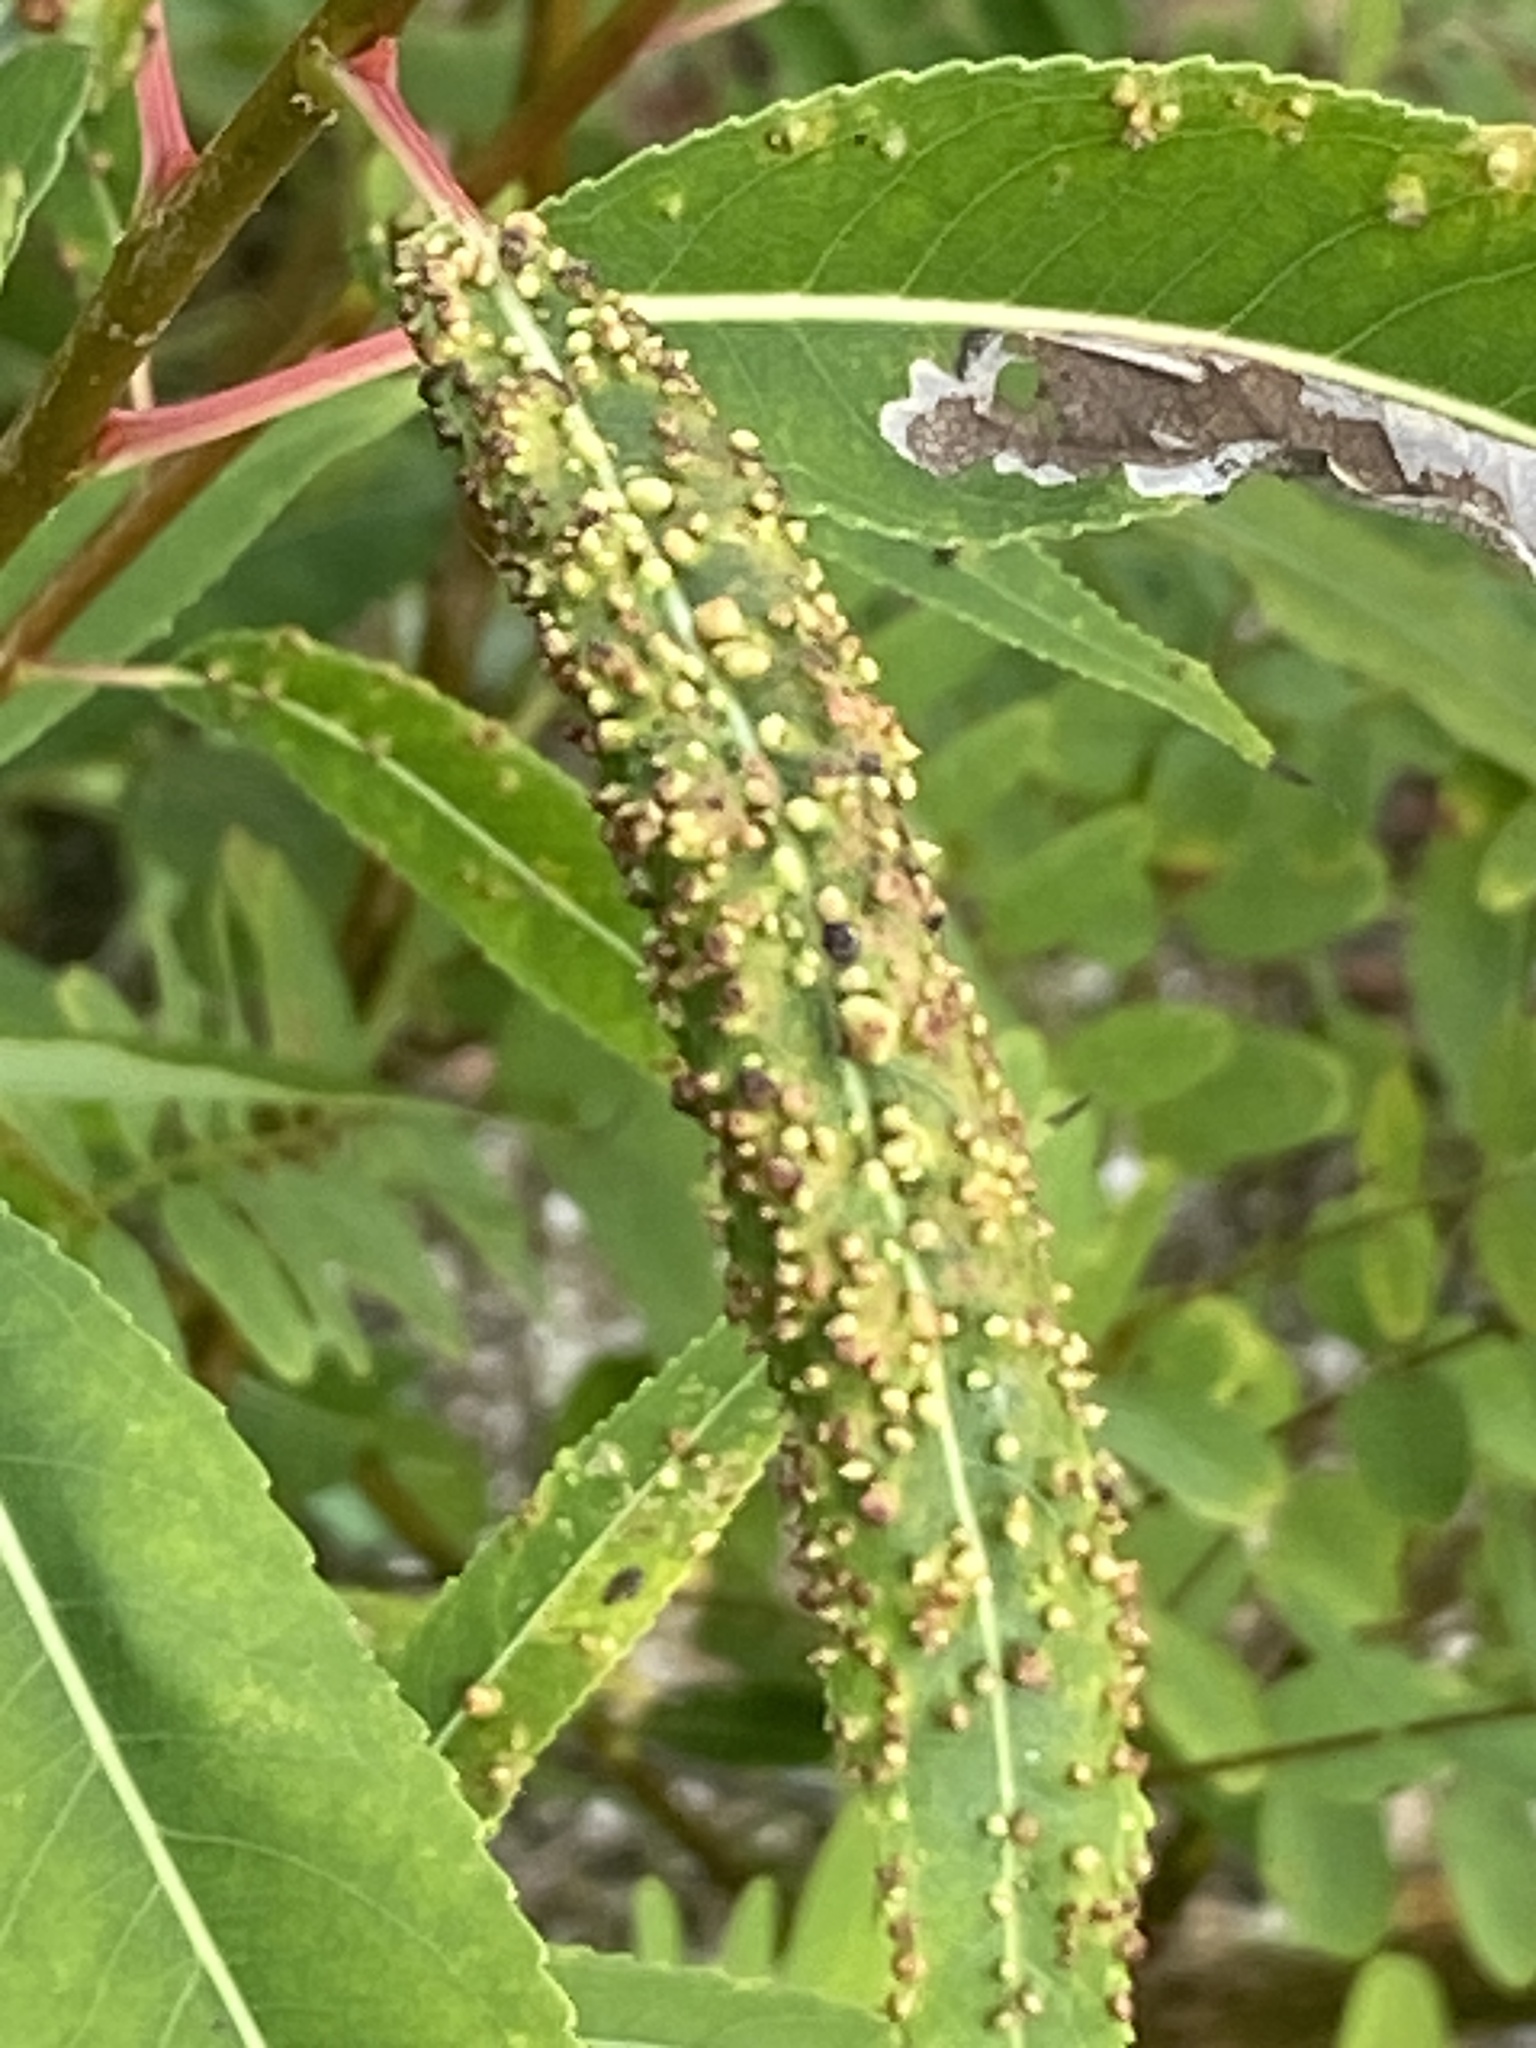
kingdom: Animalia
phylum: Arthropoda
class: Arachnida
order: Trombidiformes
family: Eriophyidae
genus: Aculus
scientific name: Aculus tetanothrix
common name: Willow bead gall mite
